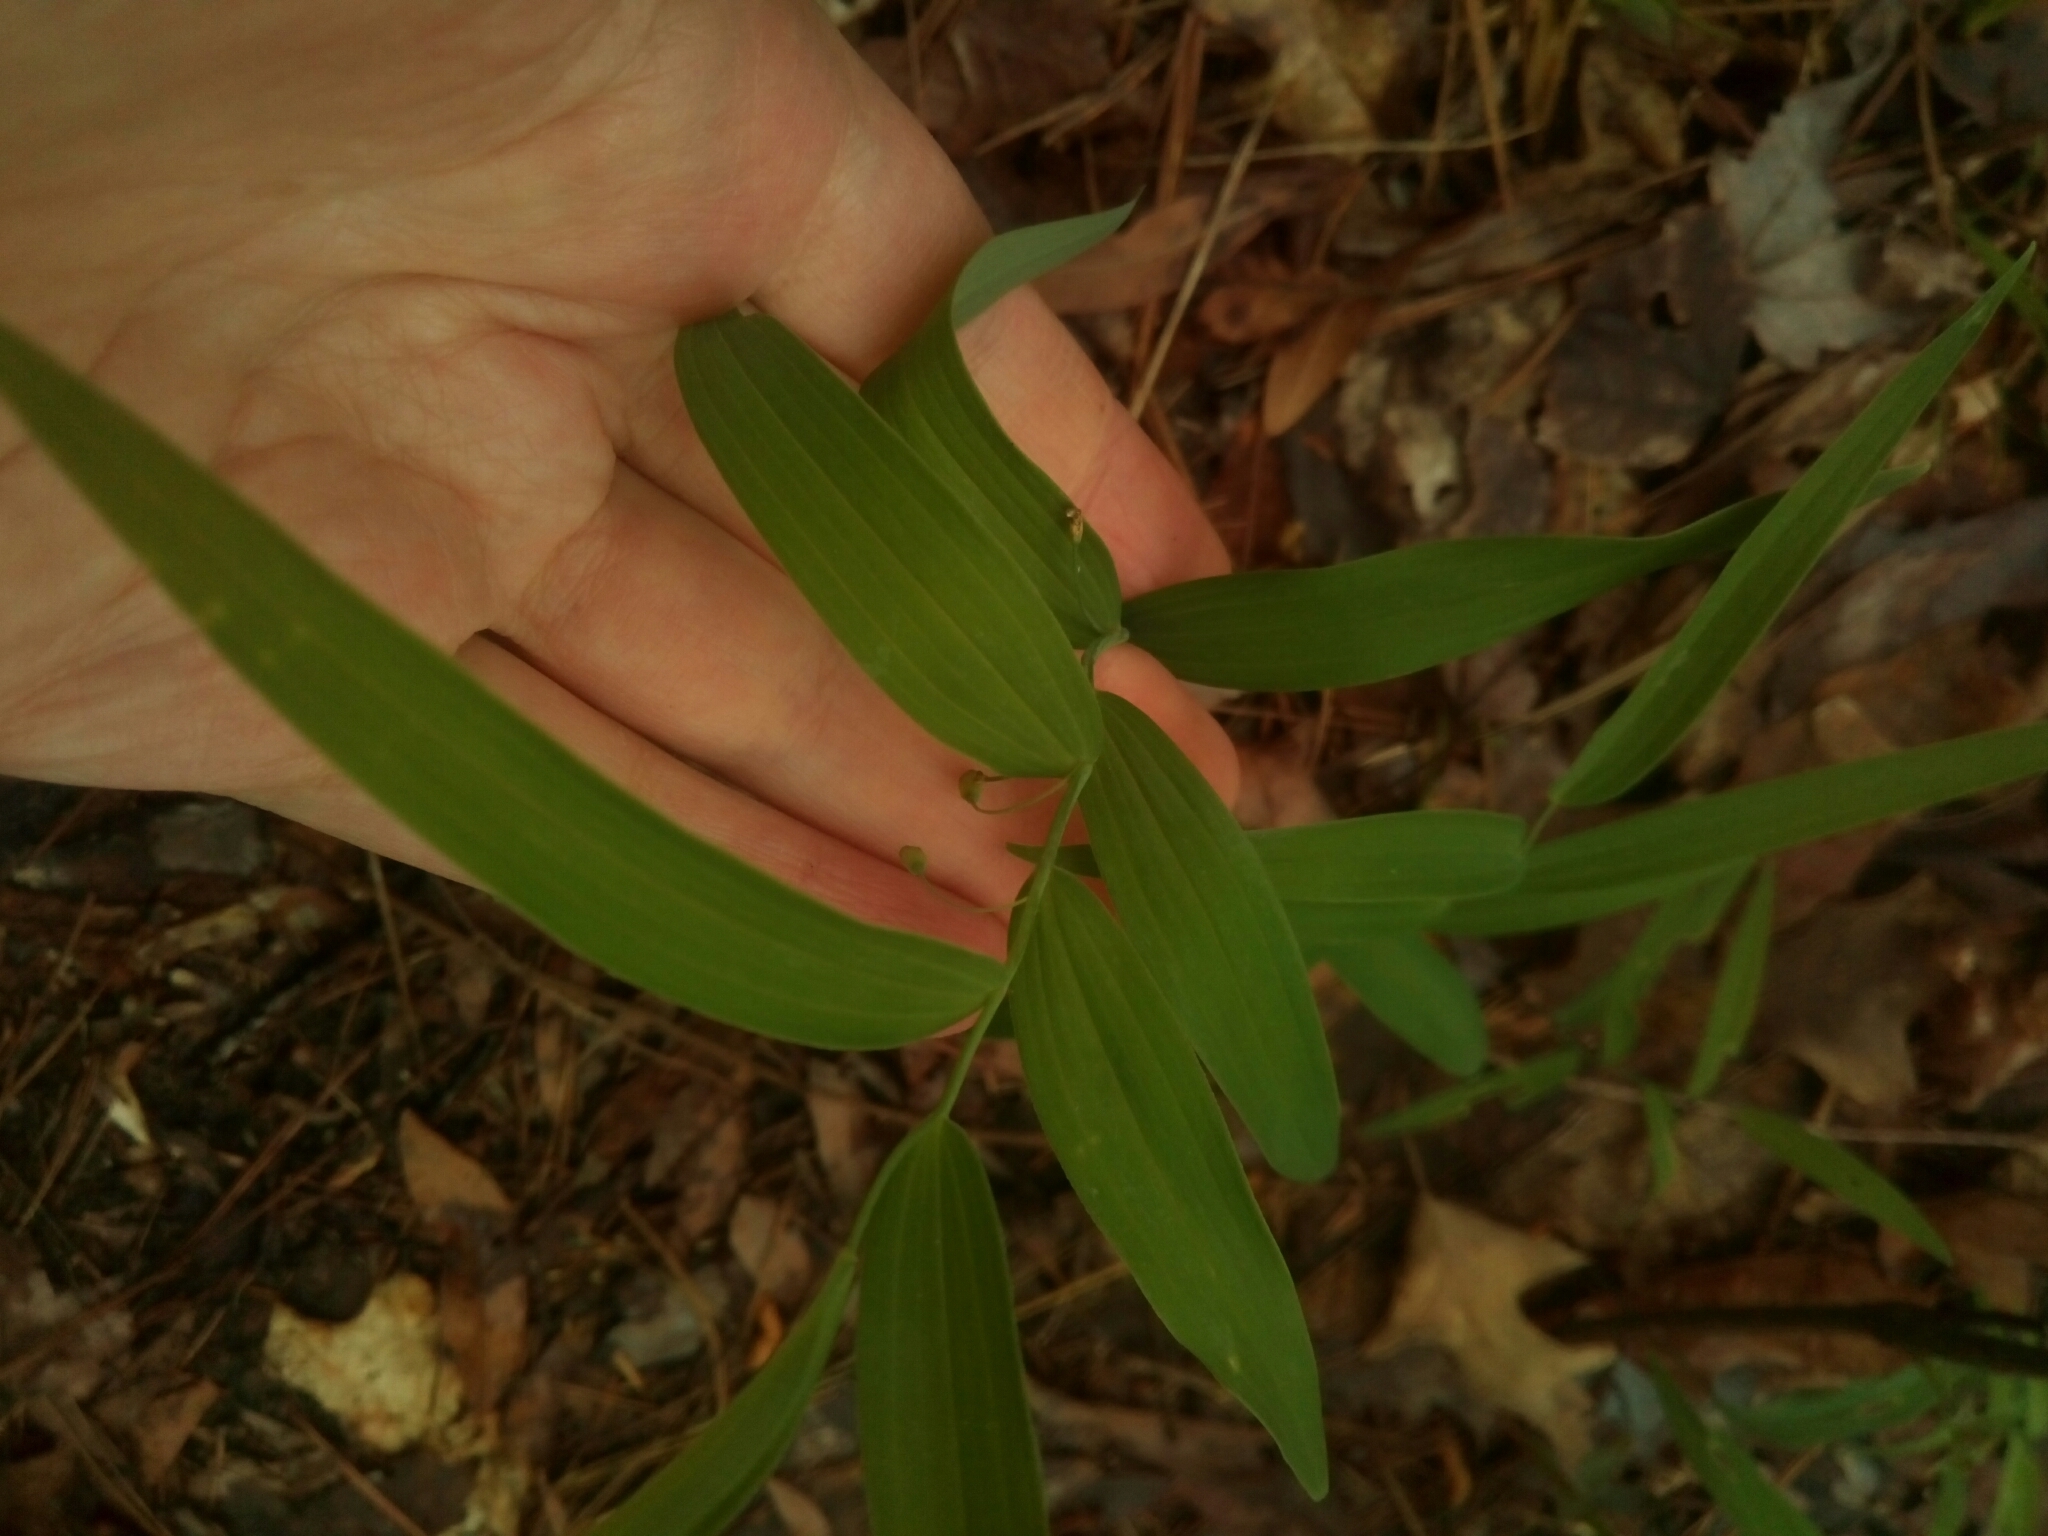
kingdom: Plantae
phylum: Tracheophyta
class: Liliopsida
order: Asparagales
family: Asparagaceae
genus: Polygonatum
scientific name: Polygonatum biflorum
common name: American solomon's-seal
